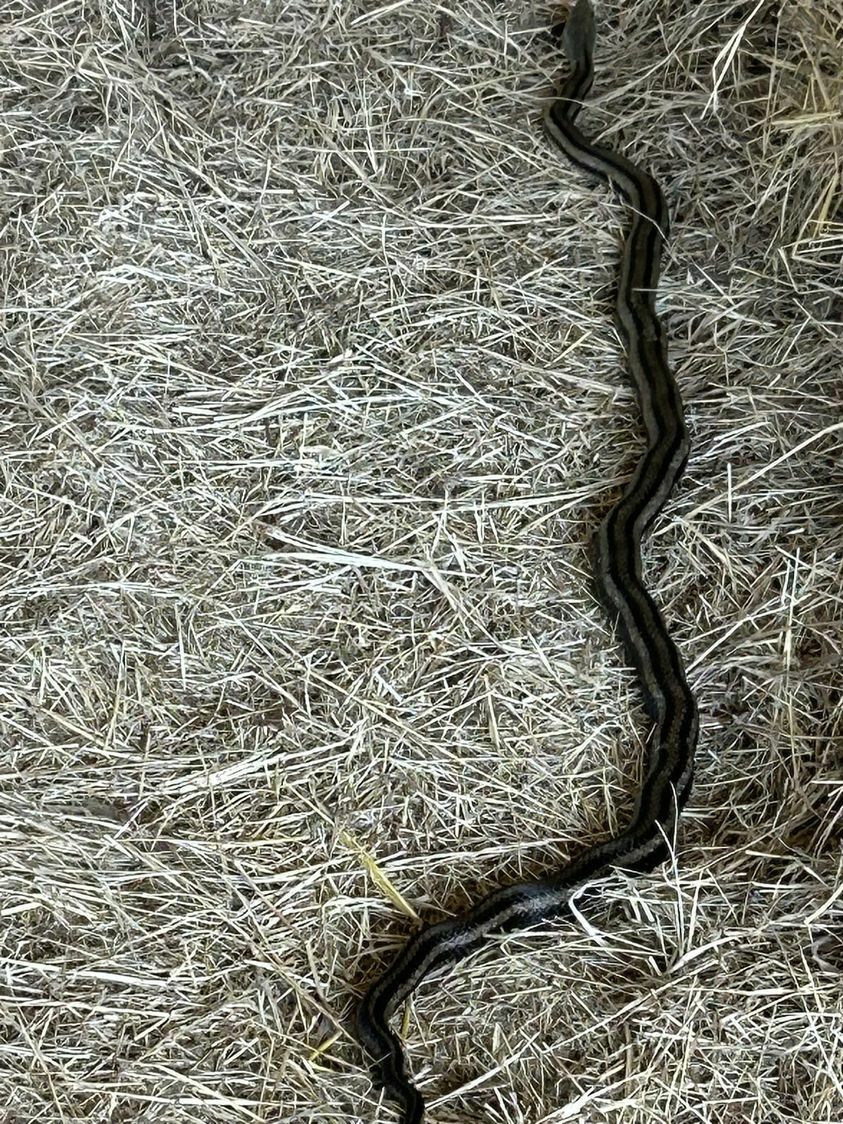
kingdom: Animalia
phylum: Chordata
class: Squamata
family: Colubridae
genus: Pantherophis
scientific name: Pantherophis alleghaniensis
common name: Eastern rat snake
